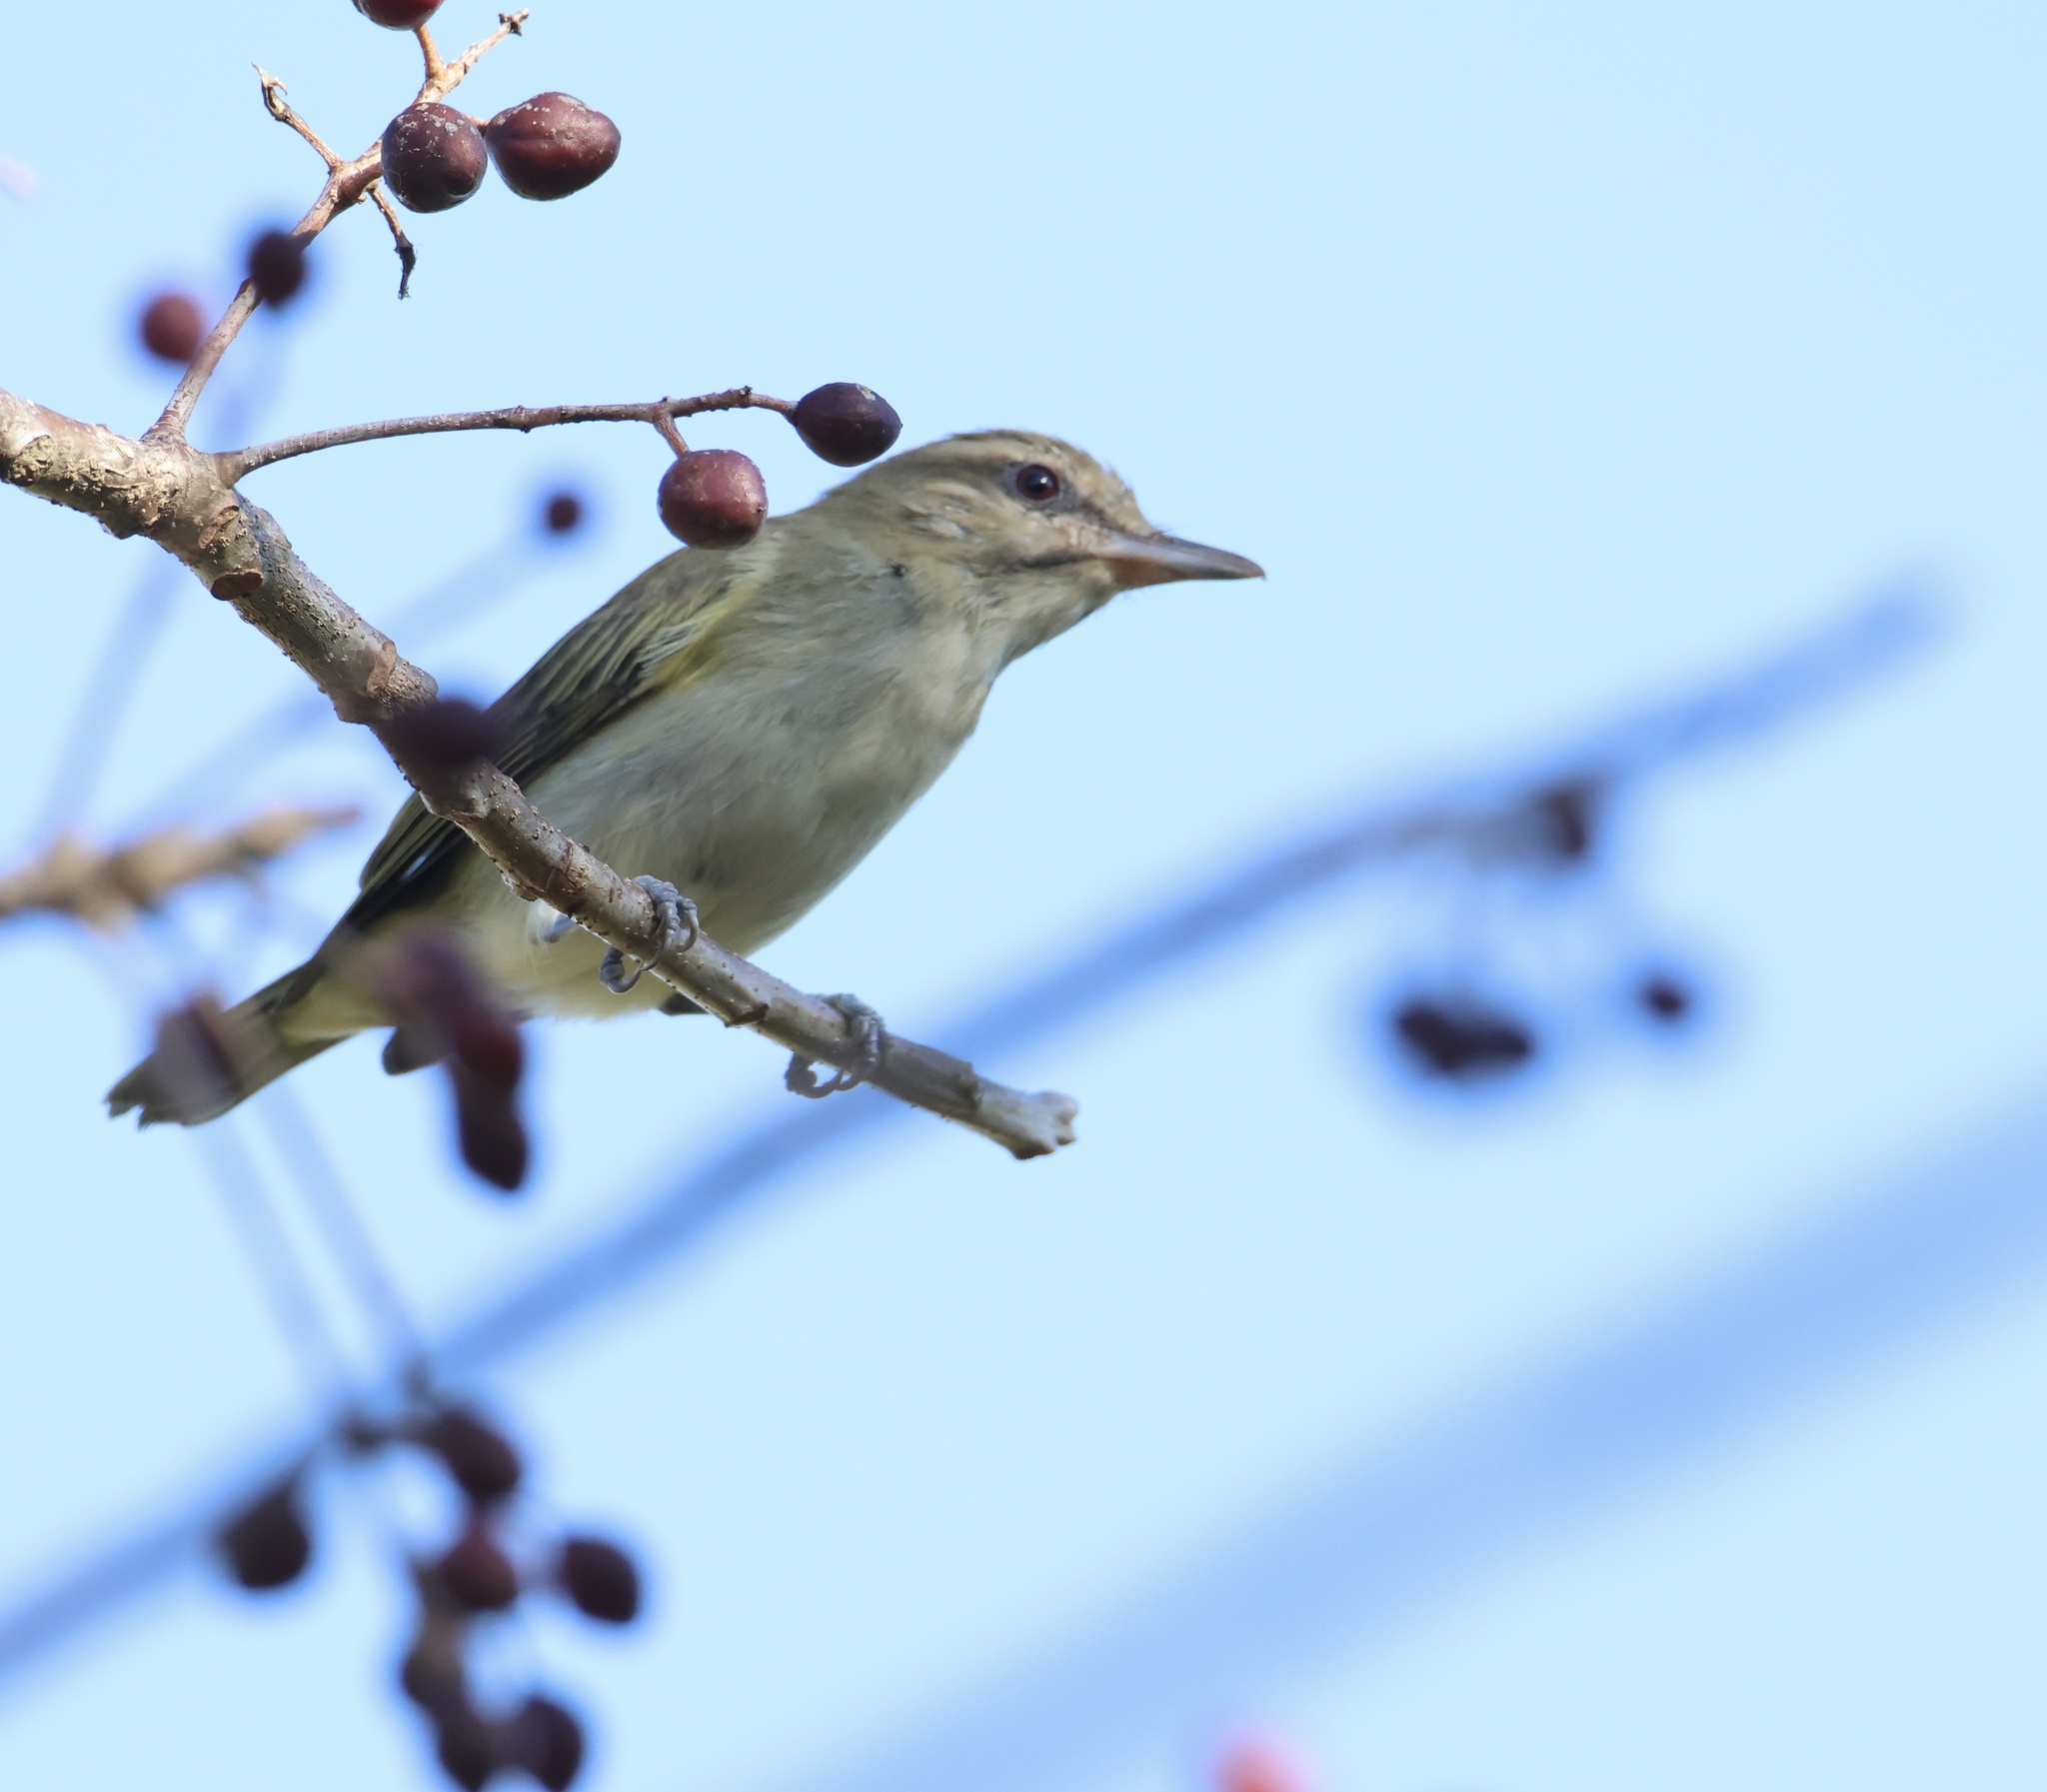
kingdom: Animalia
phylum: Chordata
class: Aves
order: Passeriformes
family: Vireonidae
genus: Vireo
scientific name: Vireo altiloquus
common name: Black-whiskered vireo
